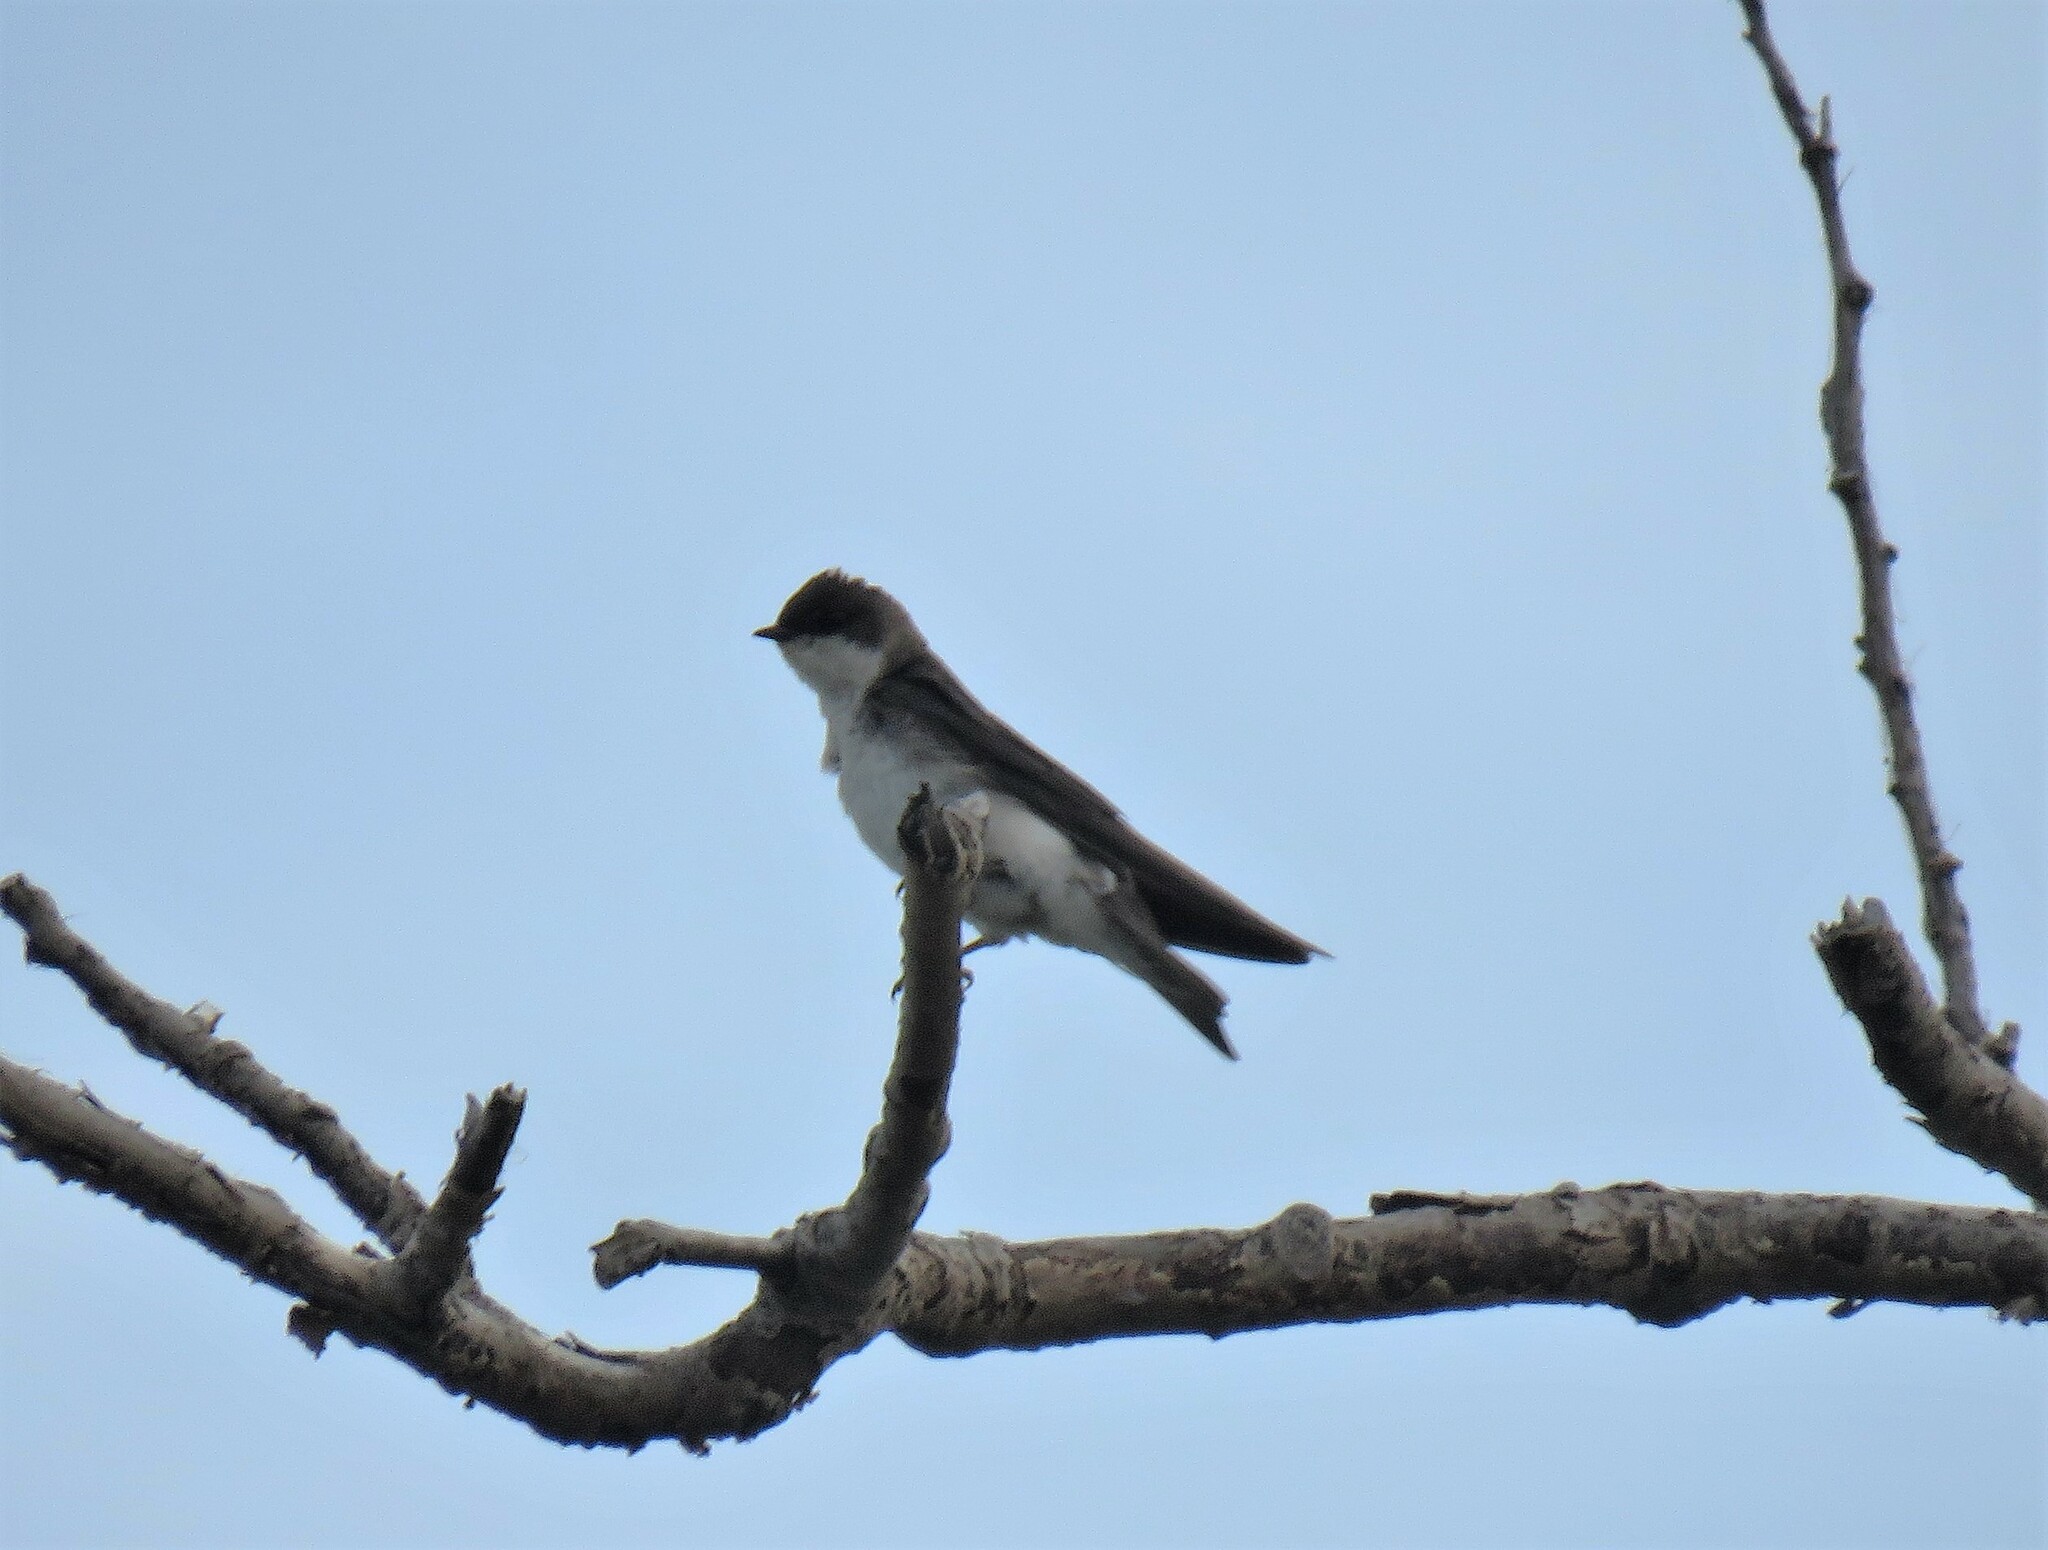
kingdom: Animalia
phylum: Chordata
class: Aves
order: Passeriformes
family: Hirundinidae
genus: Riparia
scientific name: Riparia riparia
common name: Sand martin
